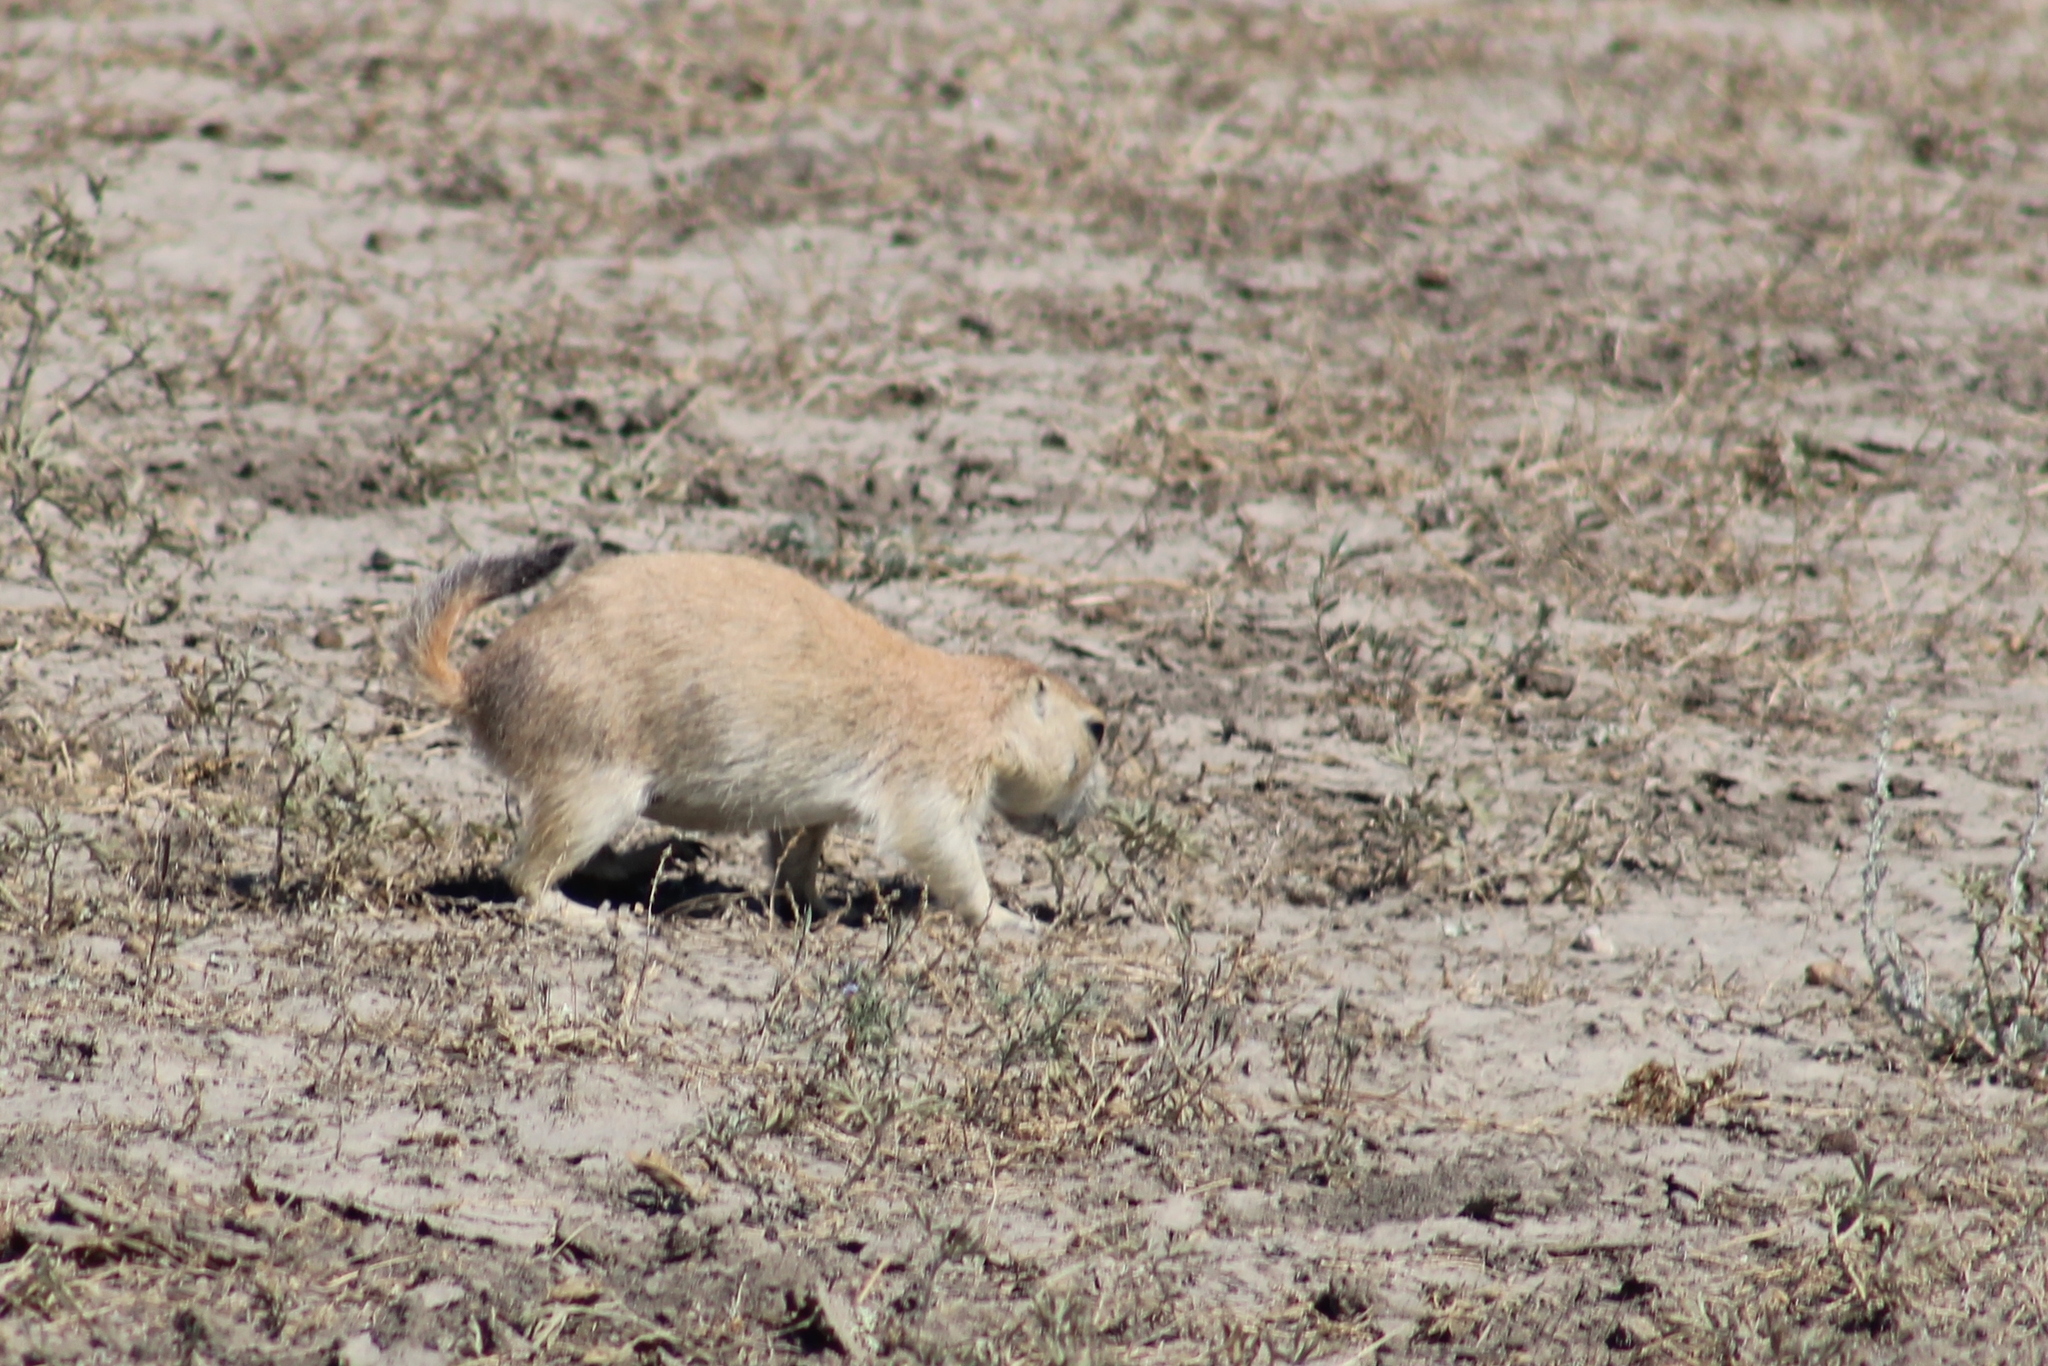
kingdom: Animalia
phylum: Chordata
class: Mammalia
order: Rodentia
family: Sciuridae
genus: Cynomys
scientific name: Cynomys ludovicianus
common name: Black-tailed prairie dog
